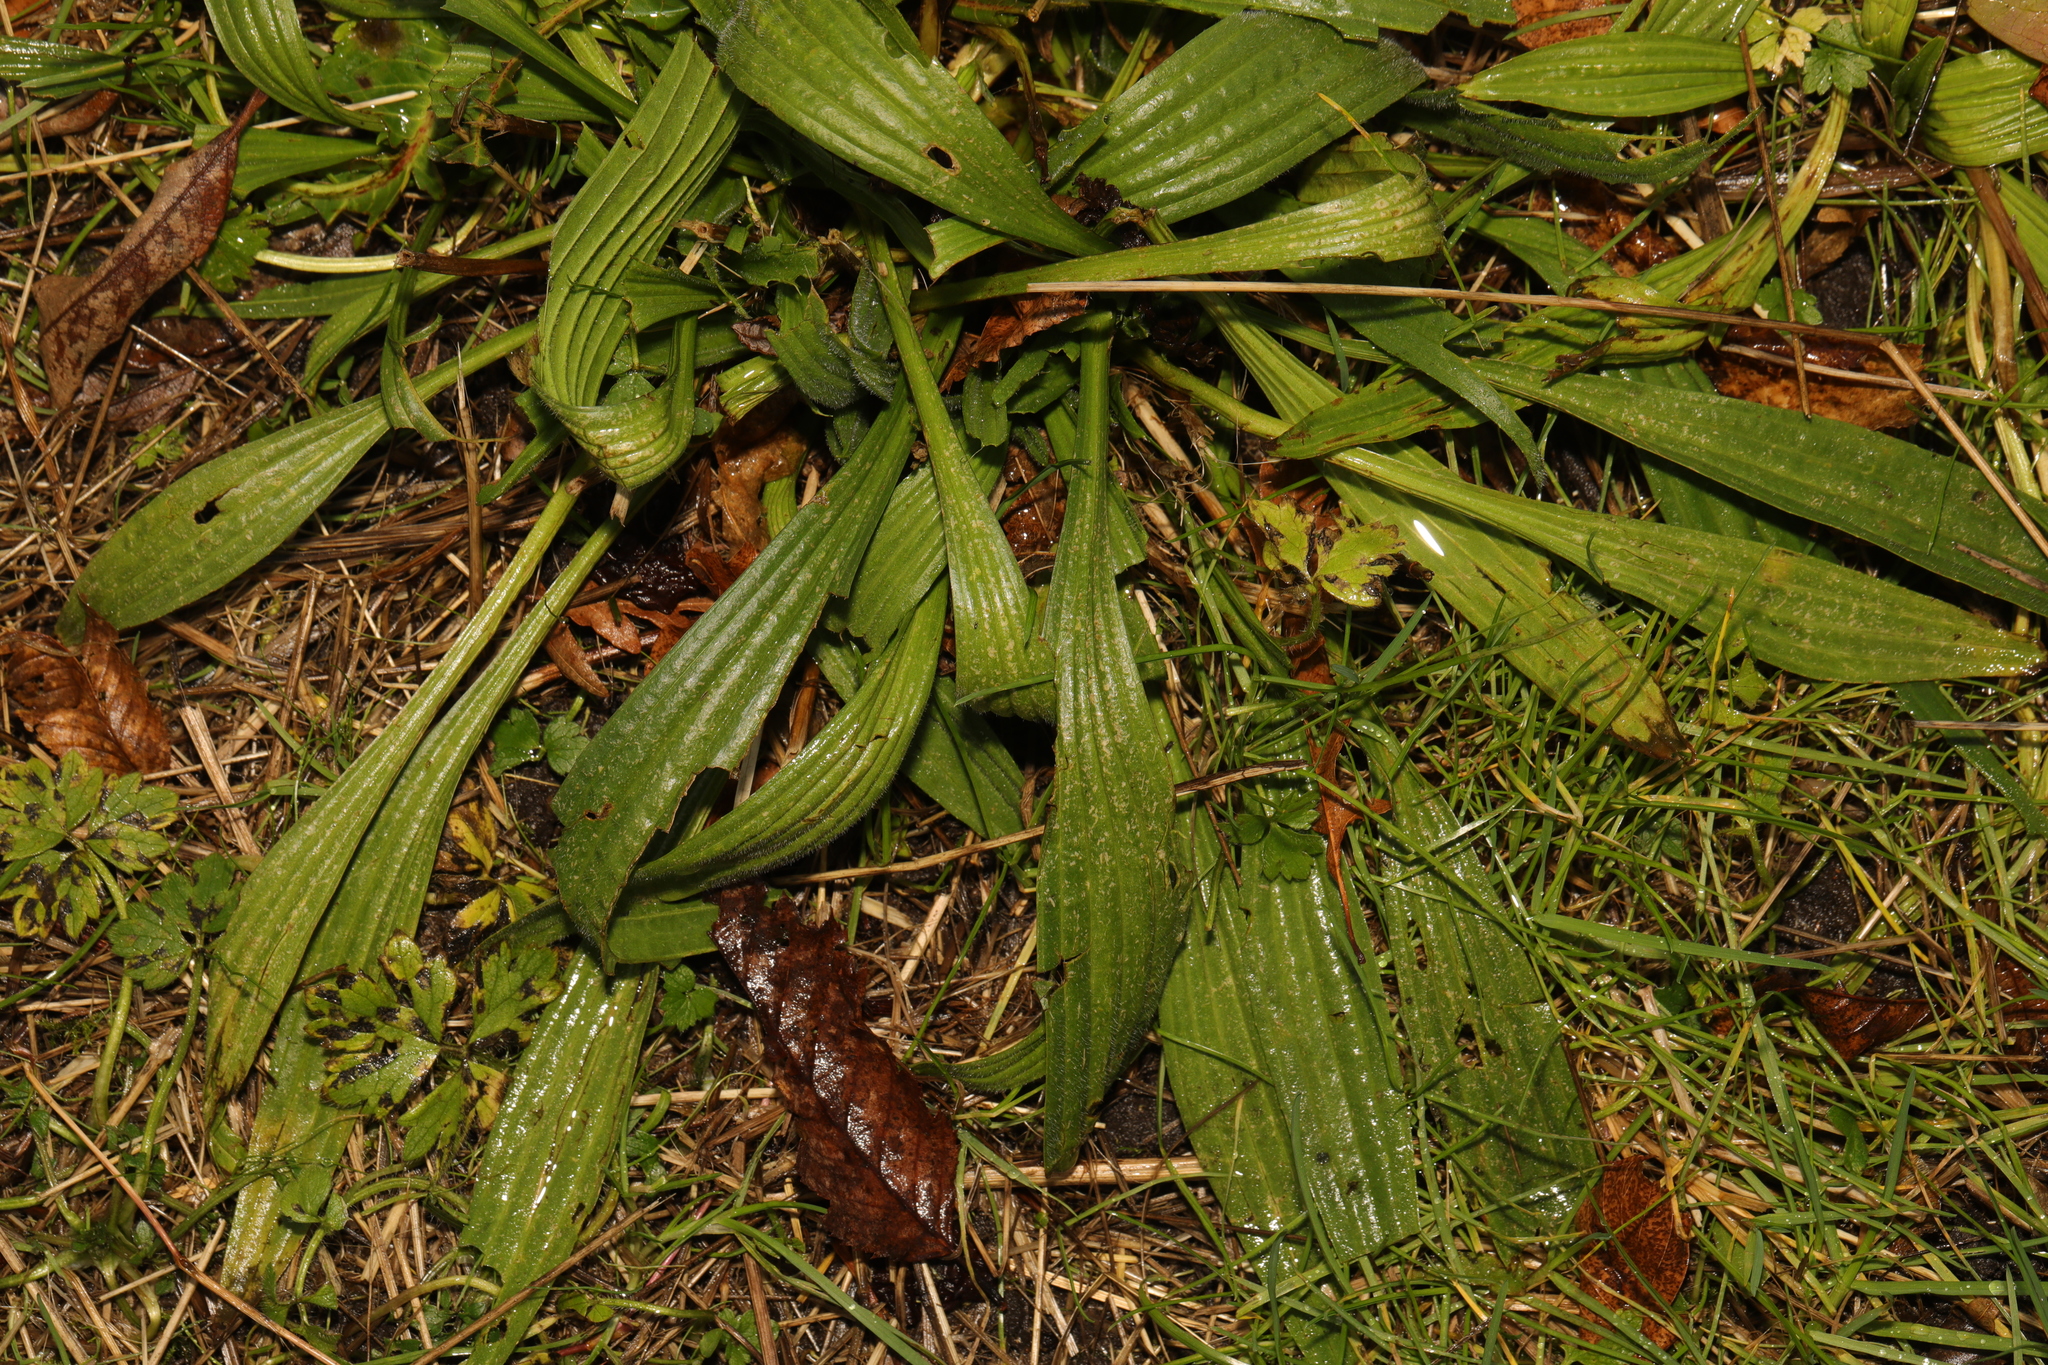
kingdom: Plantae
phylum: Tracheophyta
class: Magnoliopsida
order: Lamiales
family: Plantaginaceae
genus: Plantago
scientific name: Plantago lanceolata
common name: Ribwort plantain
